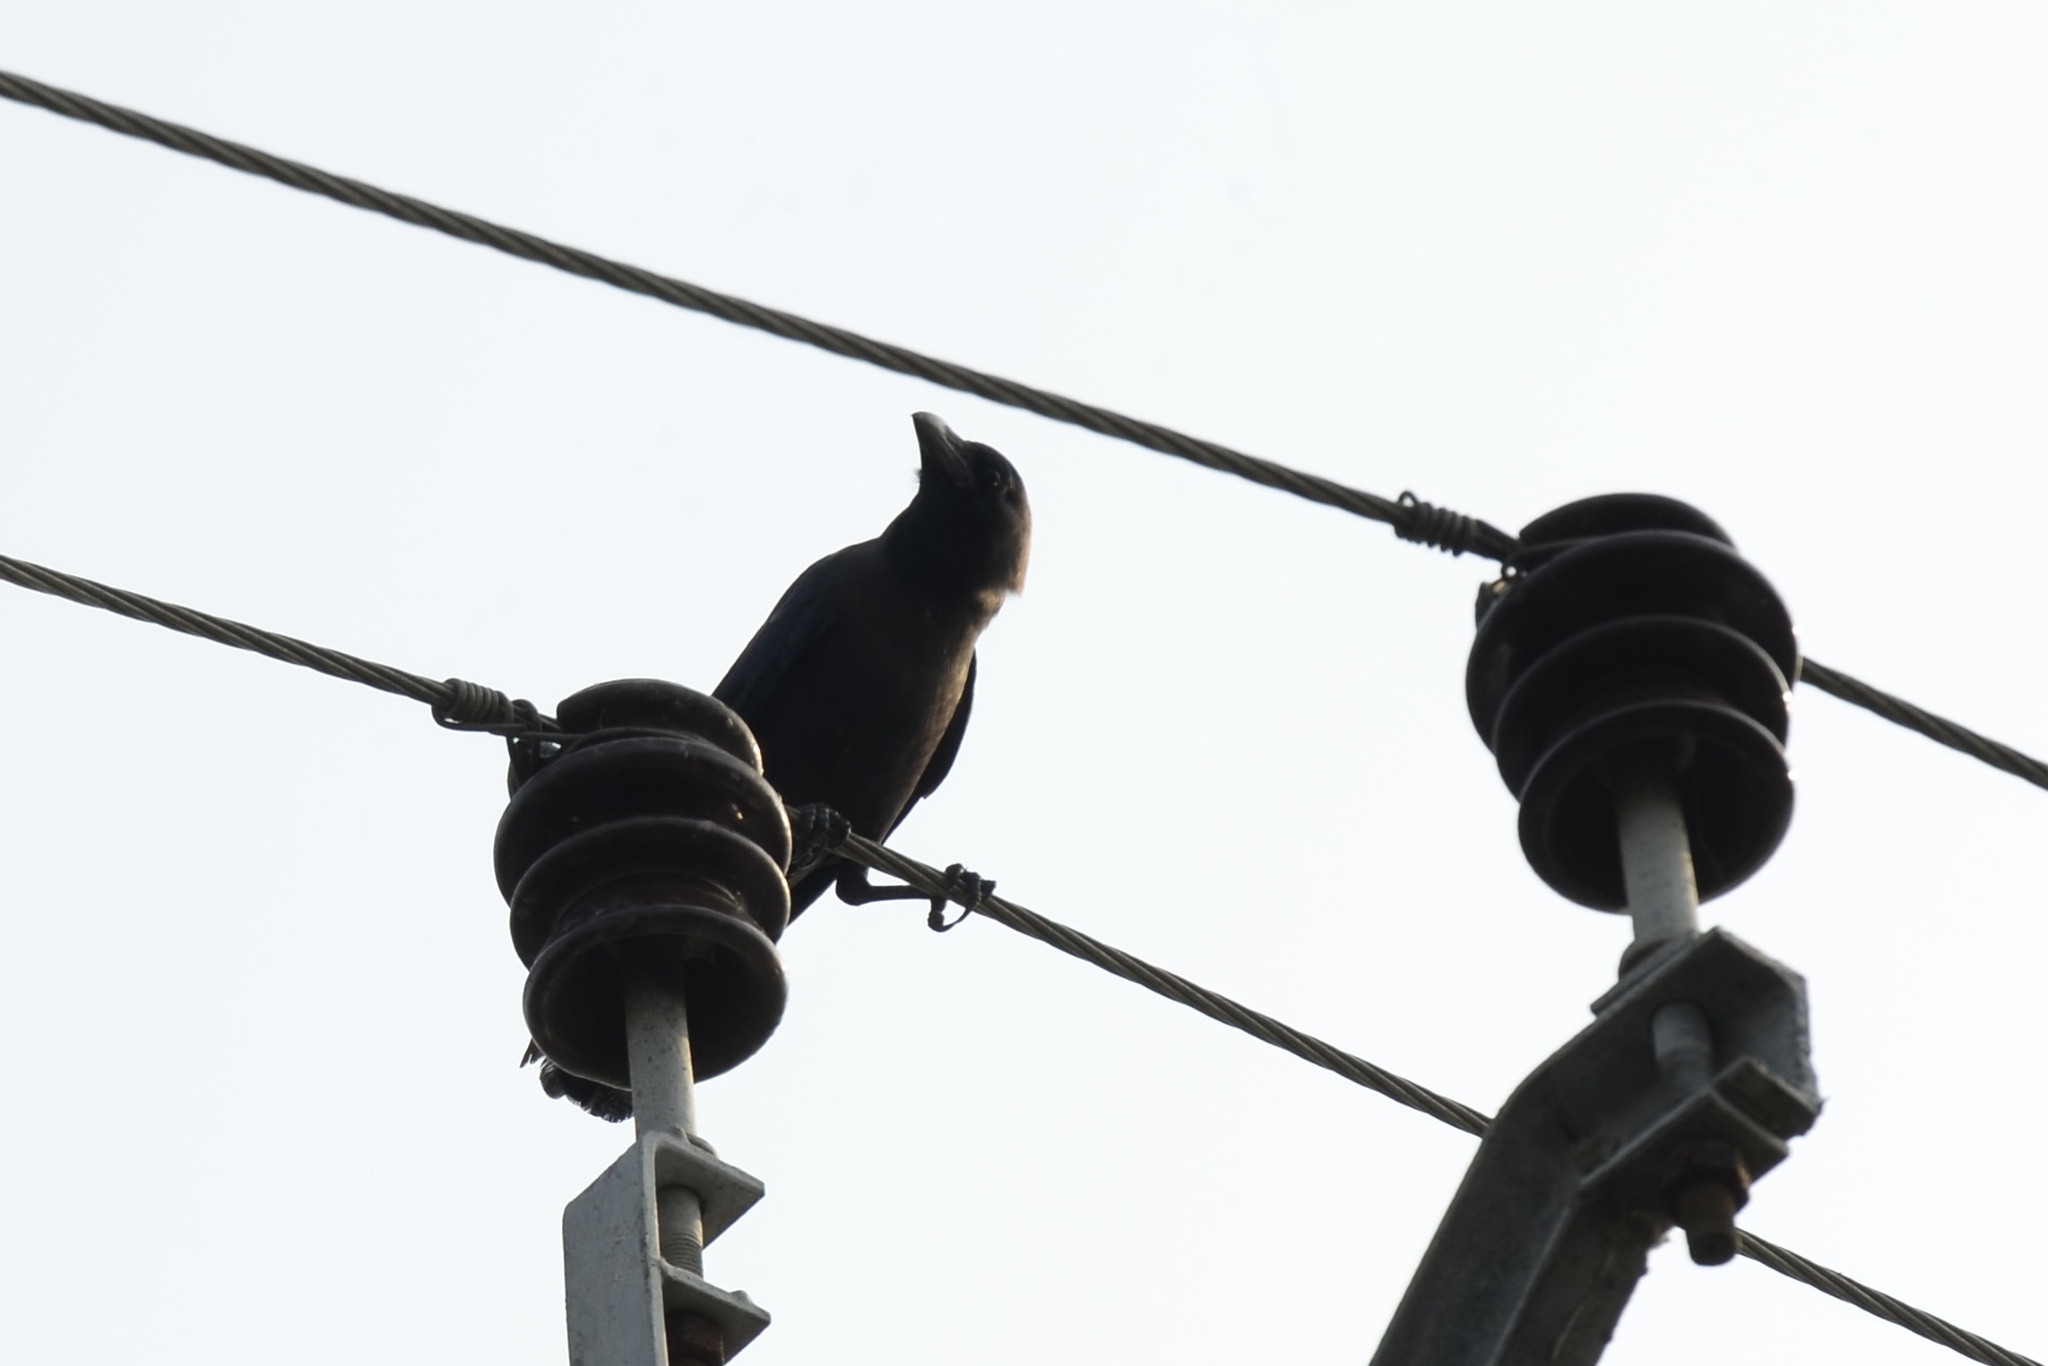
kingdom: Animalia
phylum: Chordata
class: Aves
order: Passeriformes
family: Corvidae
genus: Corvus
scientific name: Corvus splendens
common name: House crow
